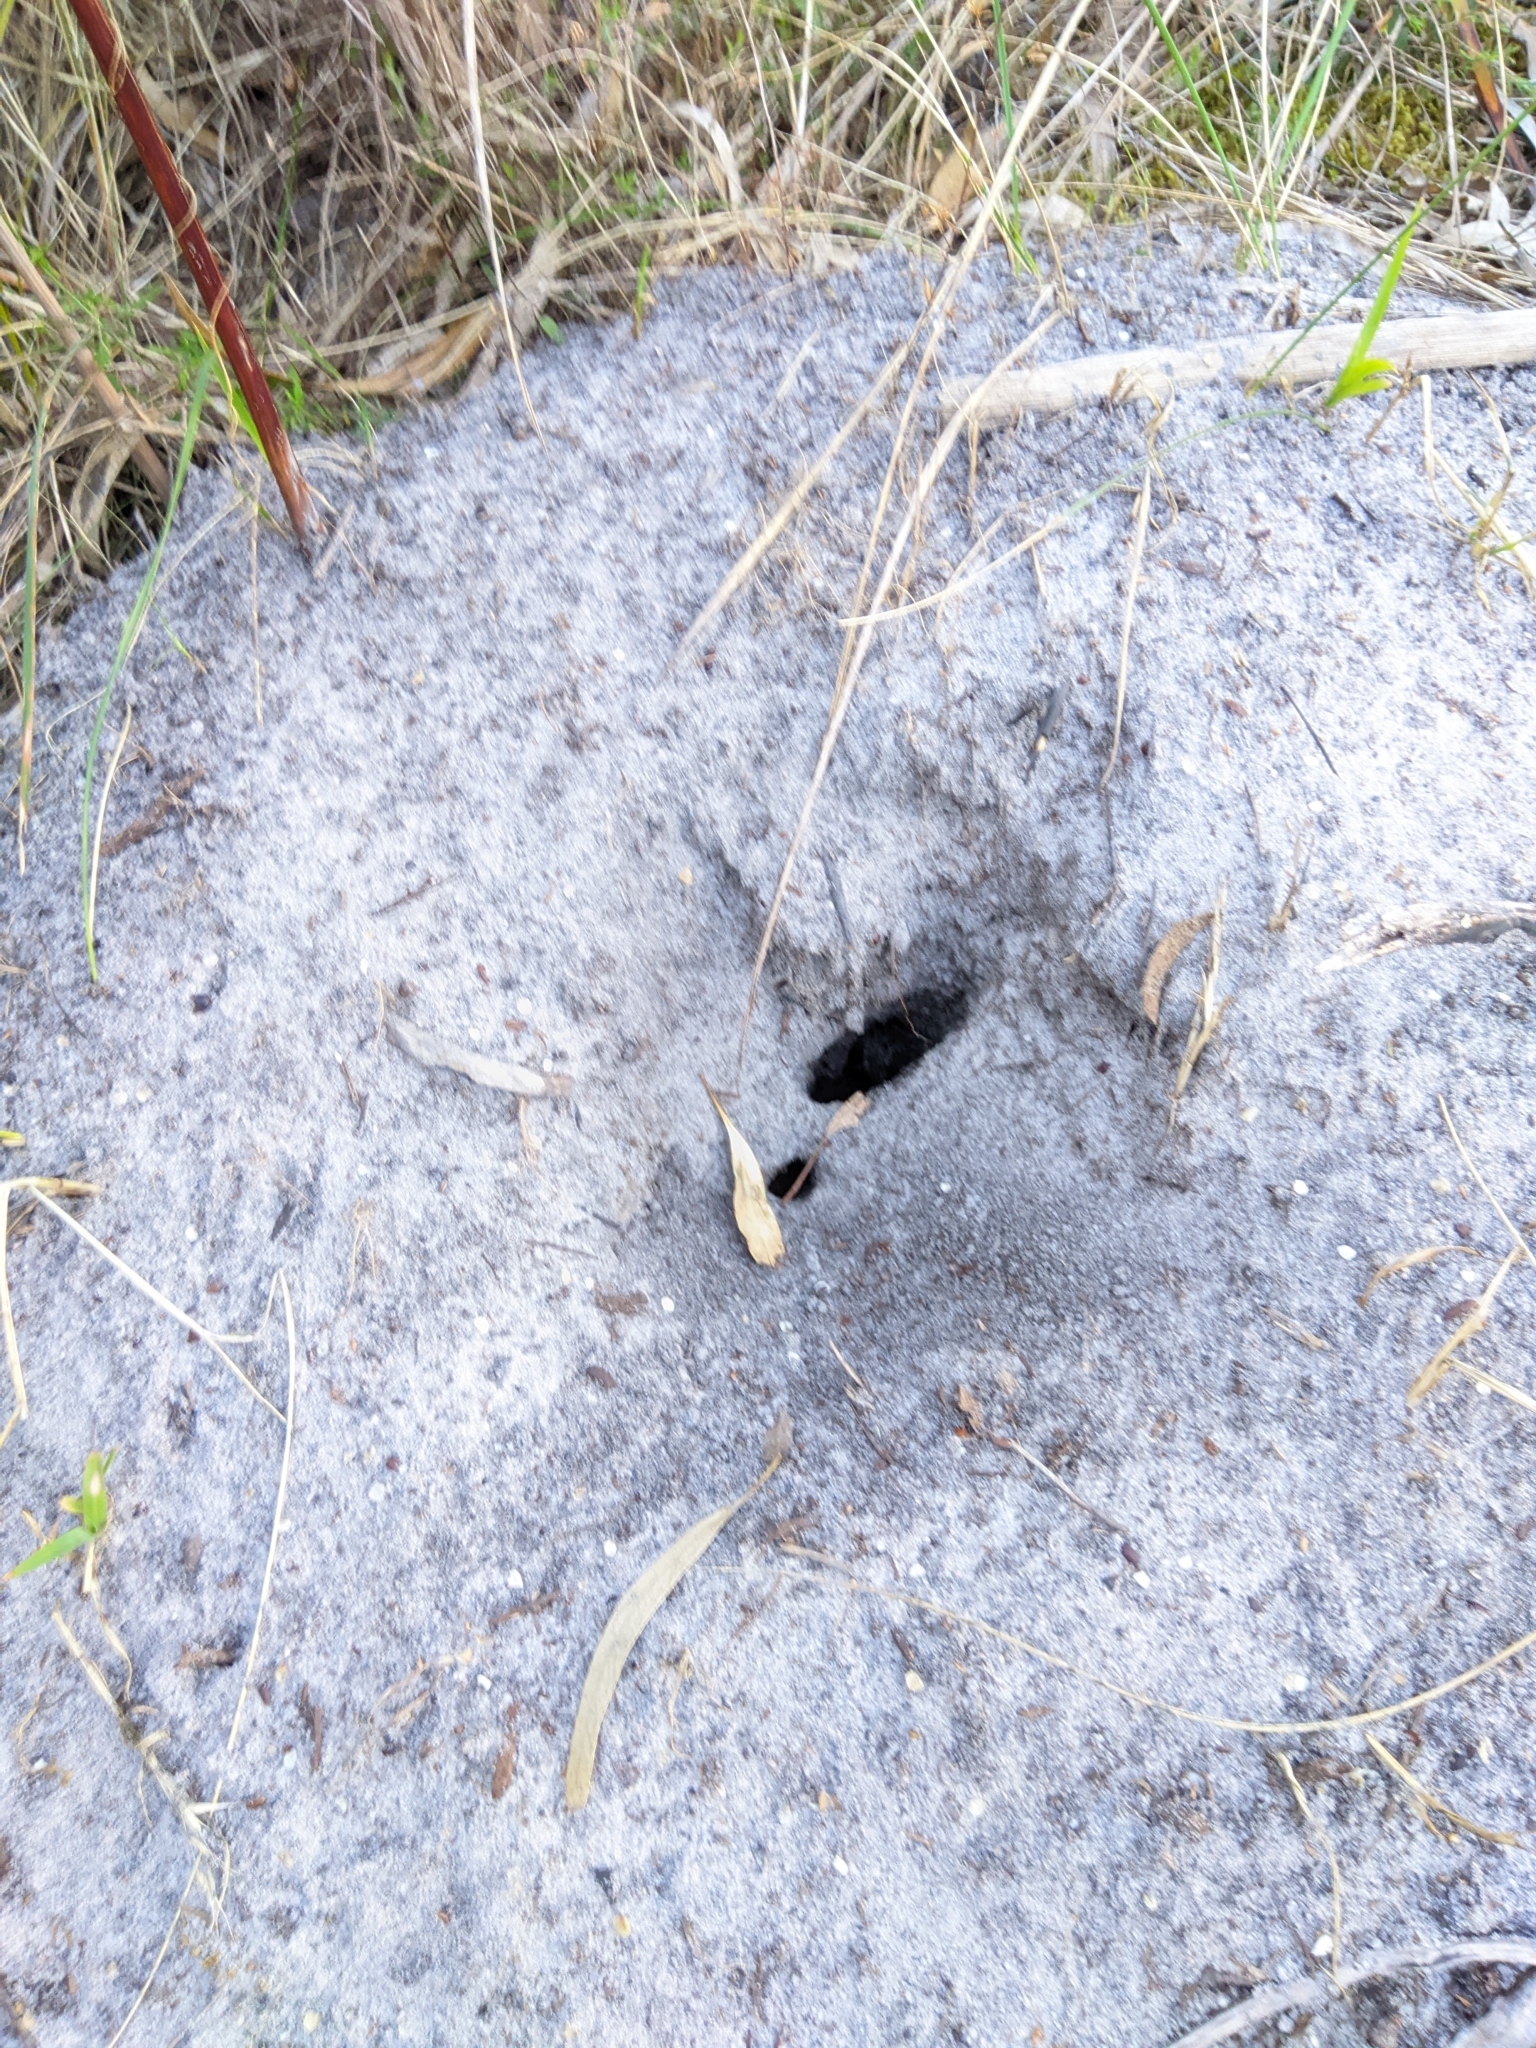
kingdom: Animalia
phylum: Arthropoda
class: Insecta
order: Hymenoptera
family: Formicidae
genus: Myrmecia
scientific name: Myrmecia nigriscapa
